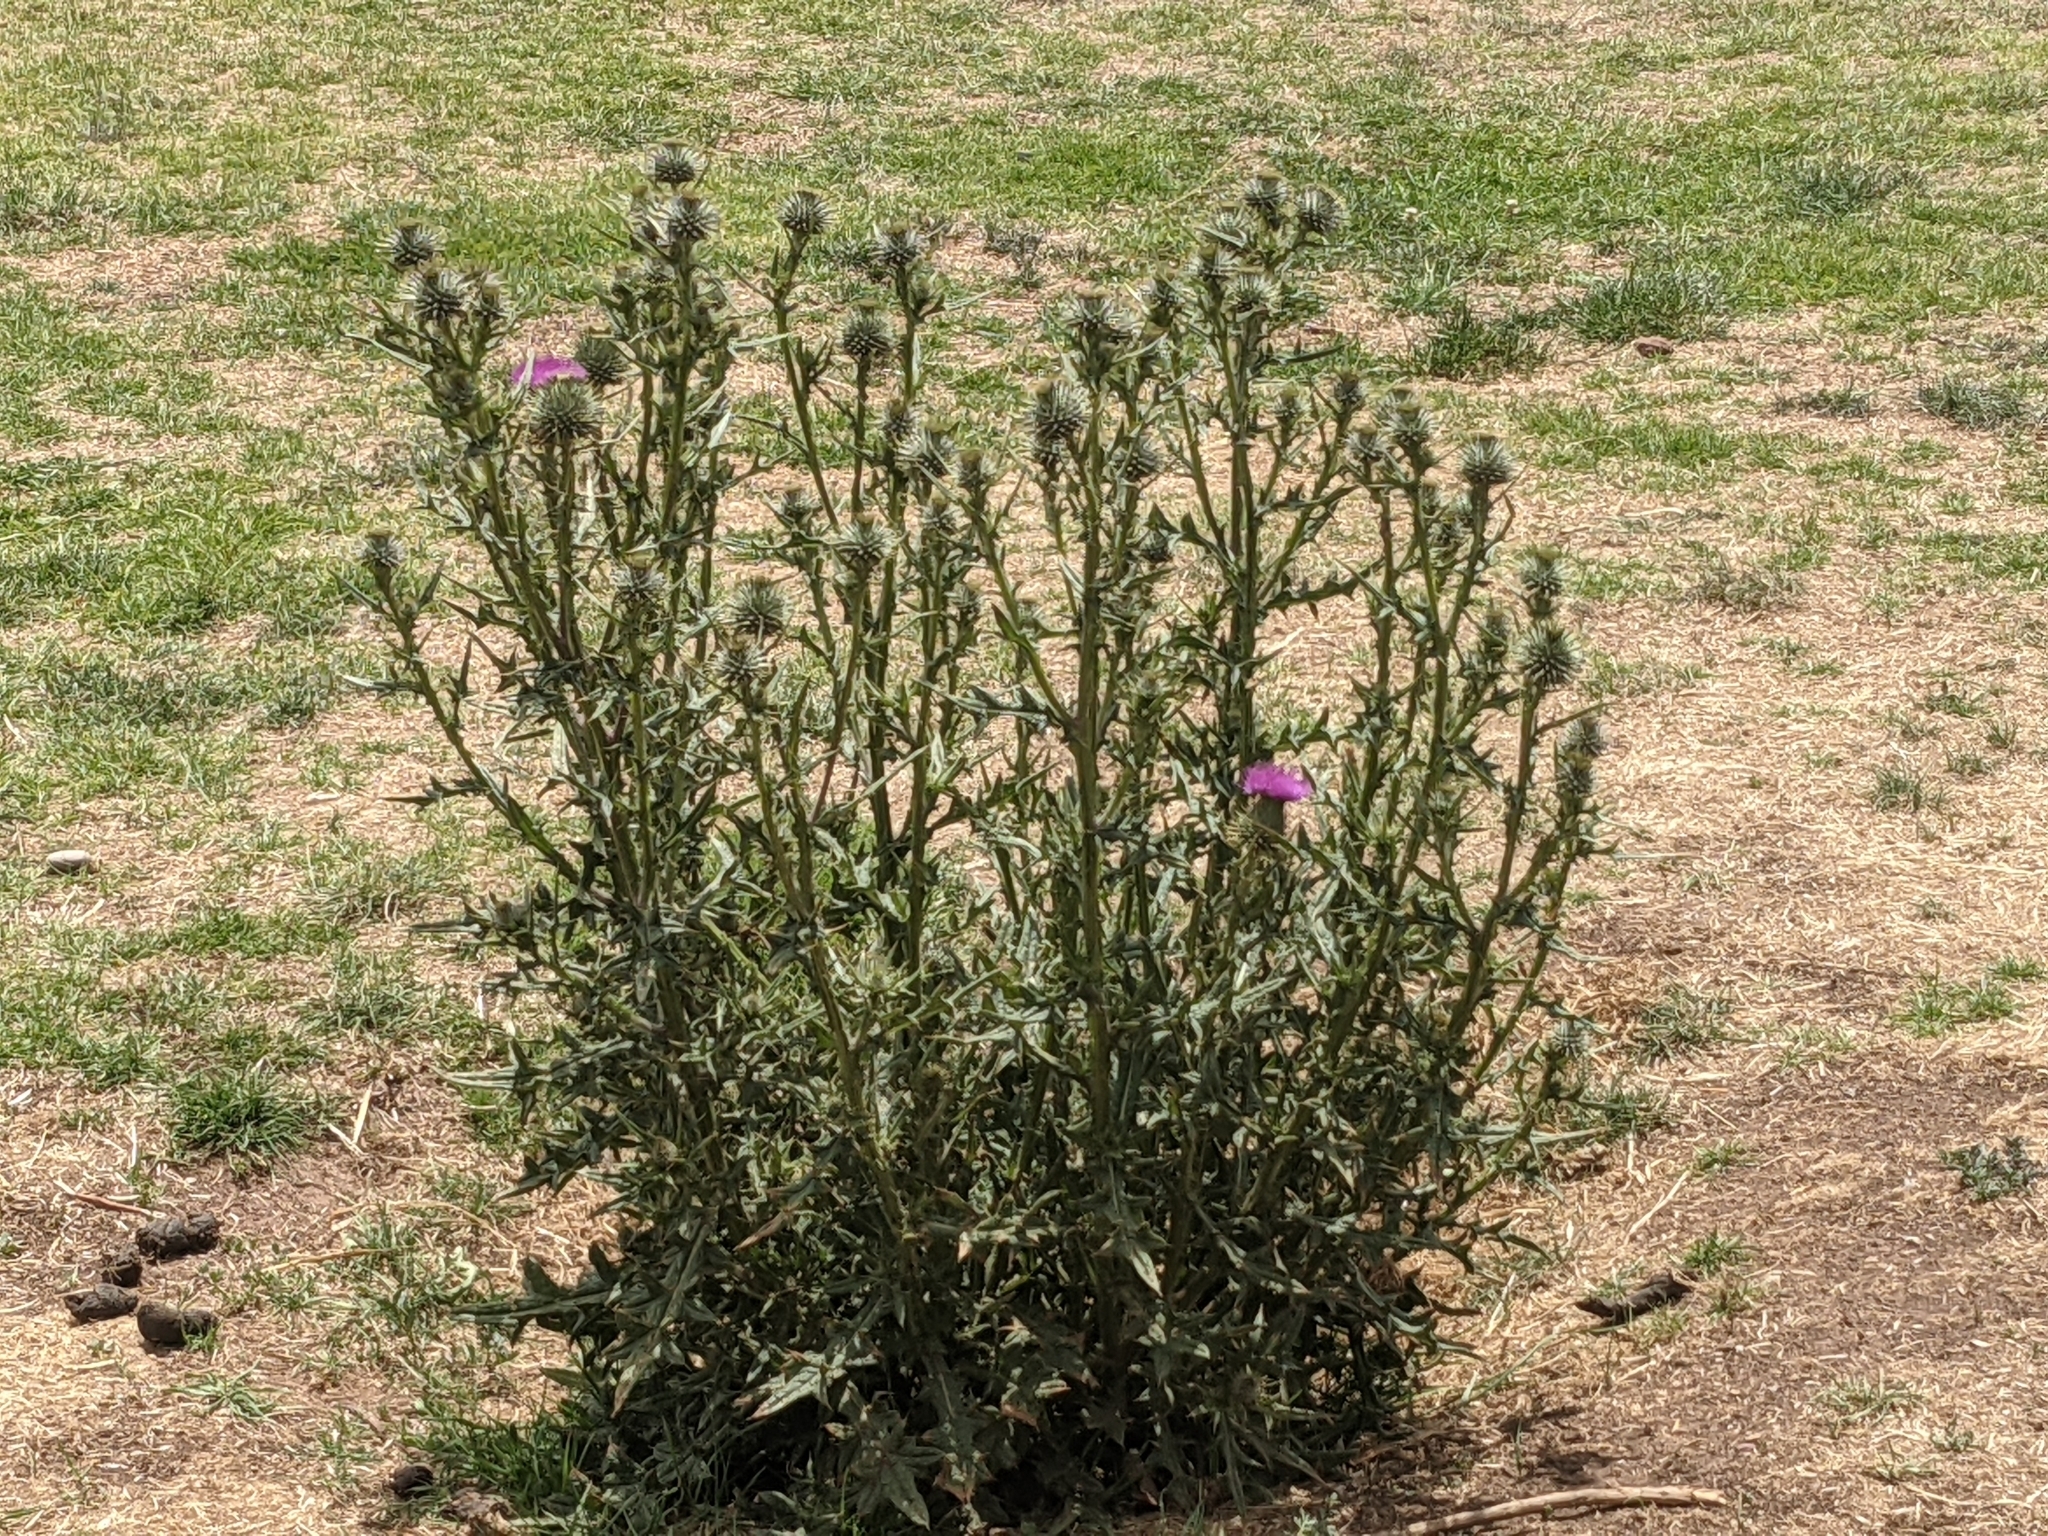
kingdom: Plantae
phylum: Tracheophyta
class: Magnoliopsida
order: Asterales
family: Asteraceae
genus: Cirsium
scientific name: Cirsium vulgare
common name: Bull thistle
